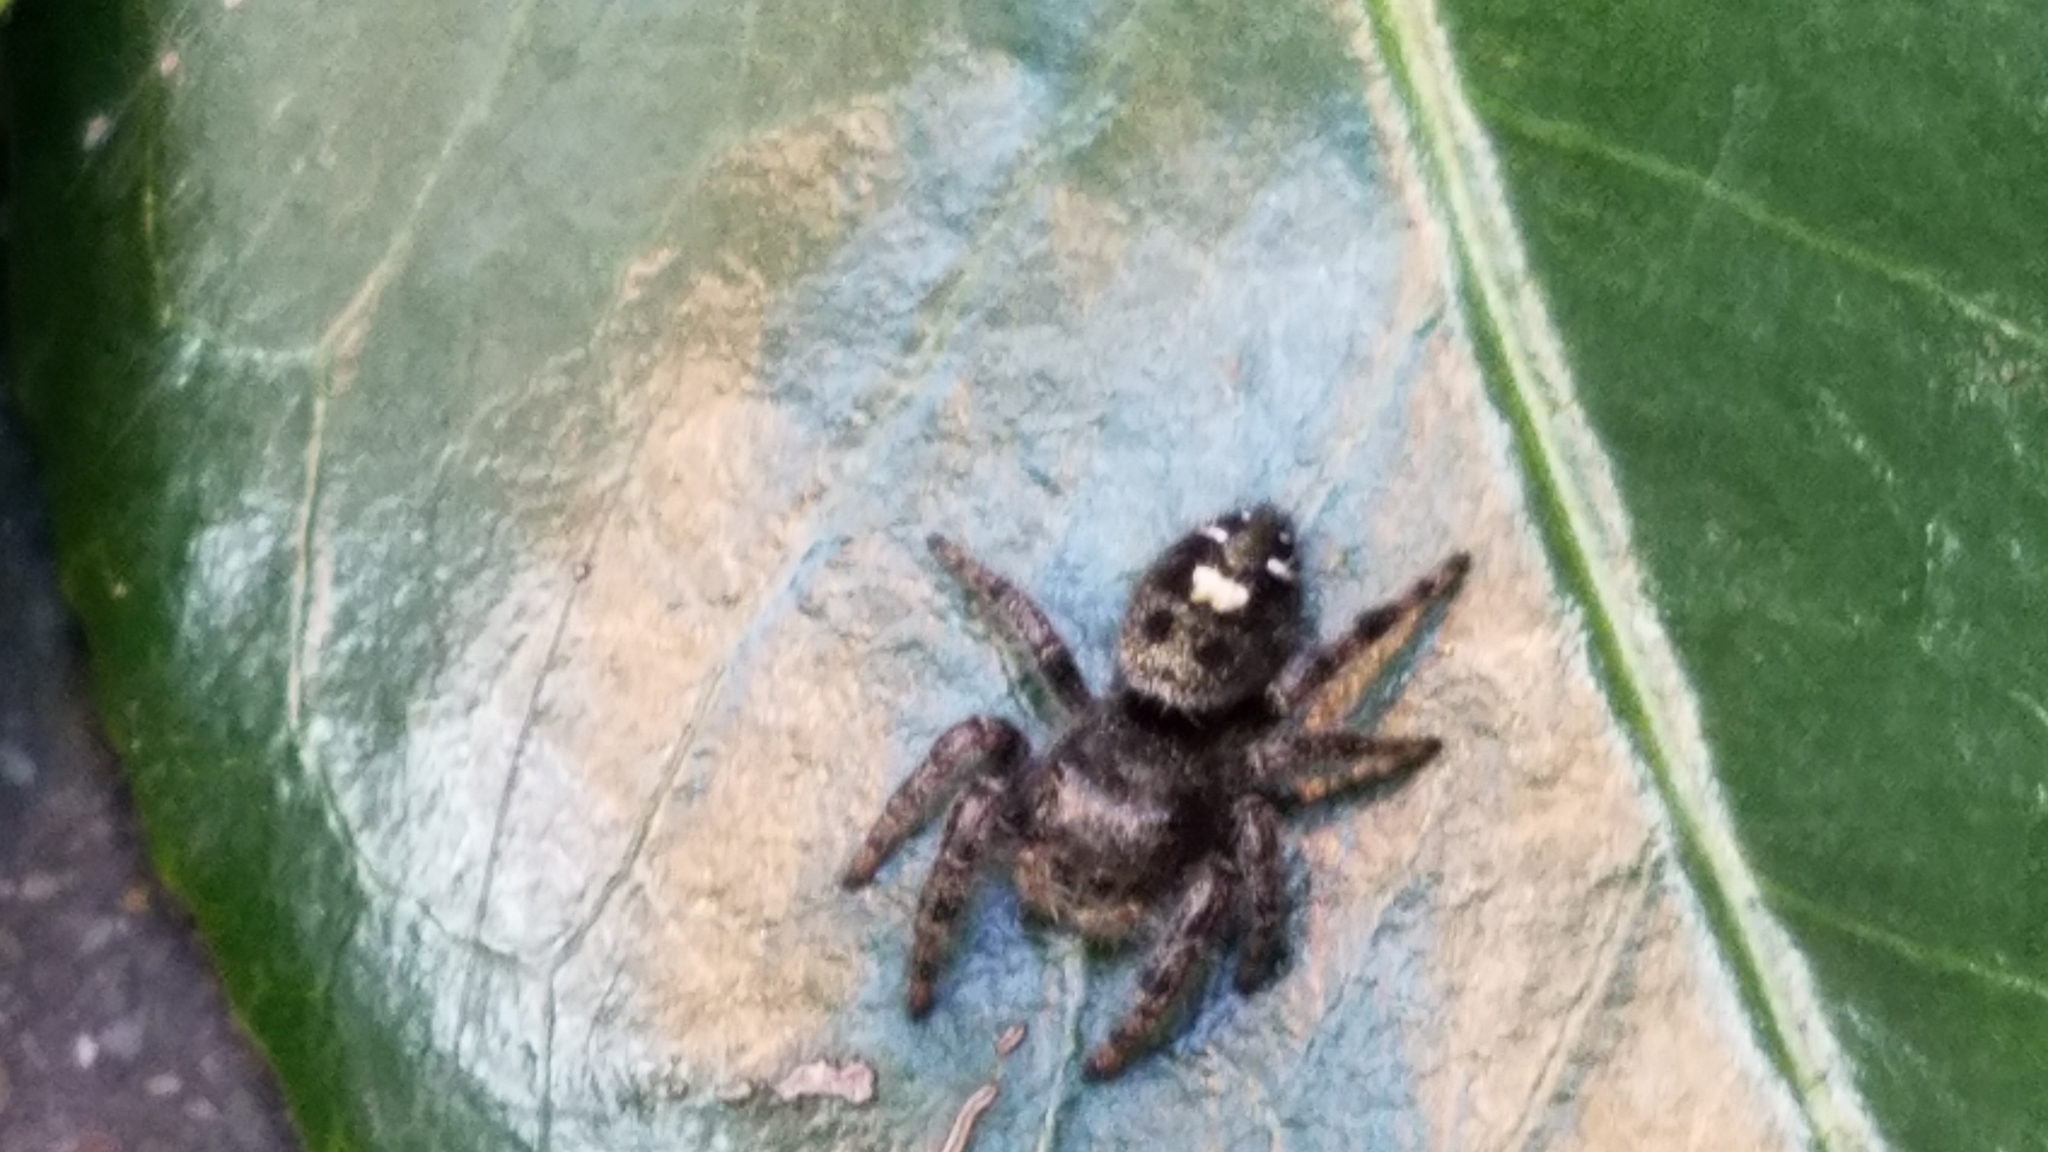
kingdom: Animalia
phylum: Arthropoda
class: Arachnida
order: Araneae
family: Salticidae
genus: Phidippus
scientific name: Phidippus audax
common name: Bold jumper
